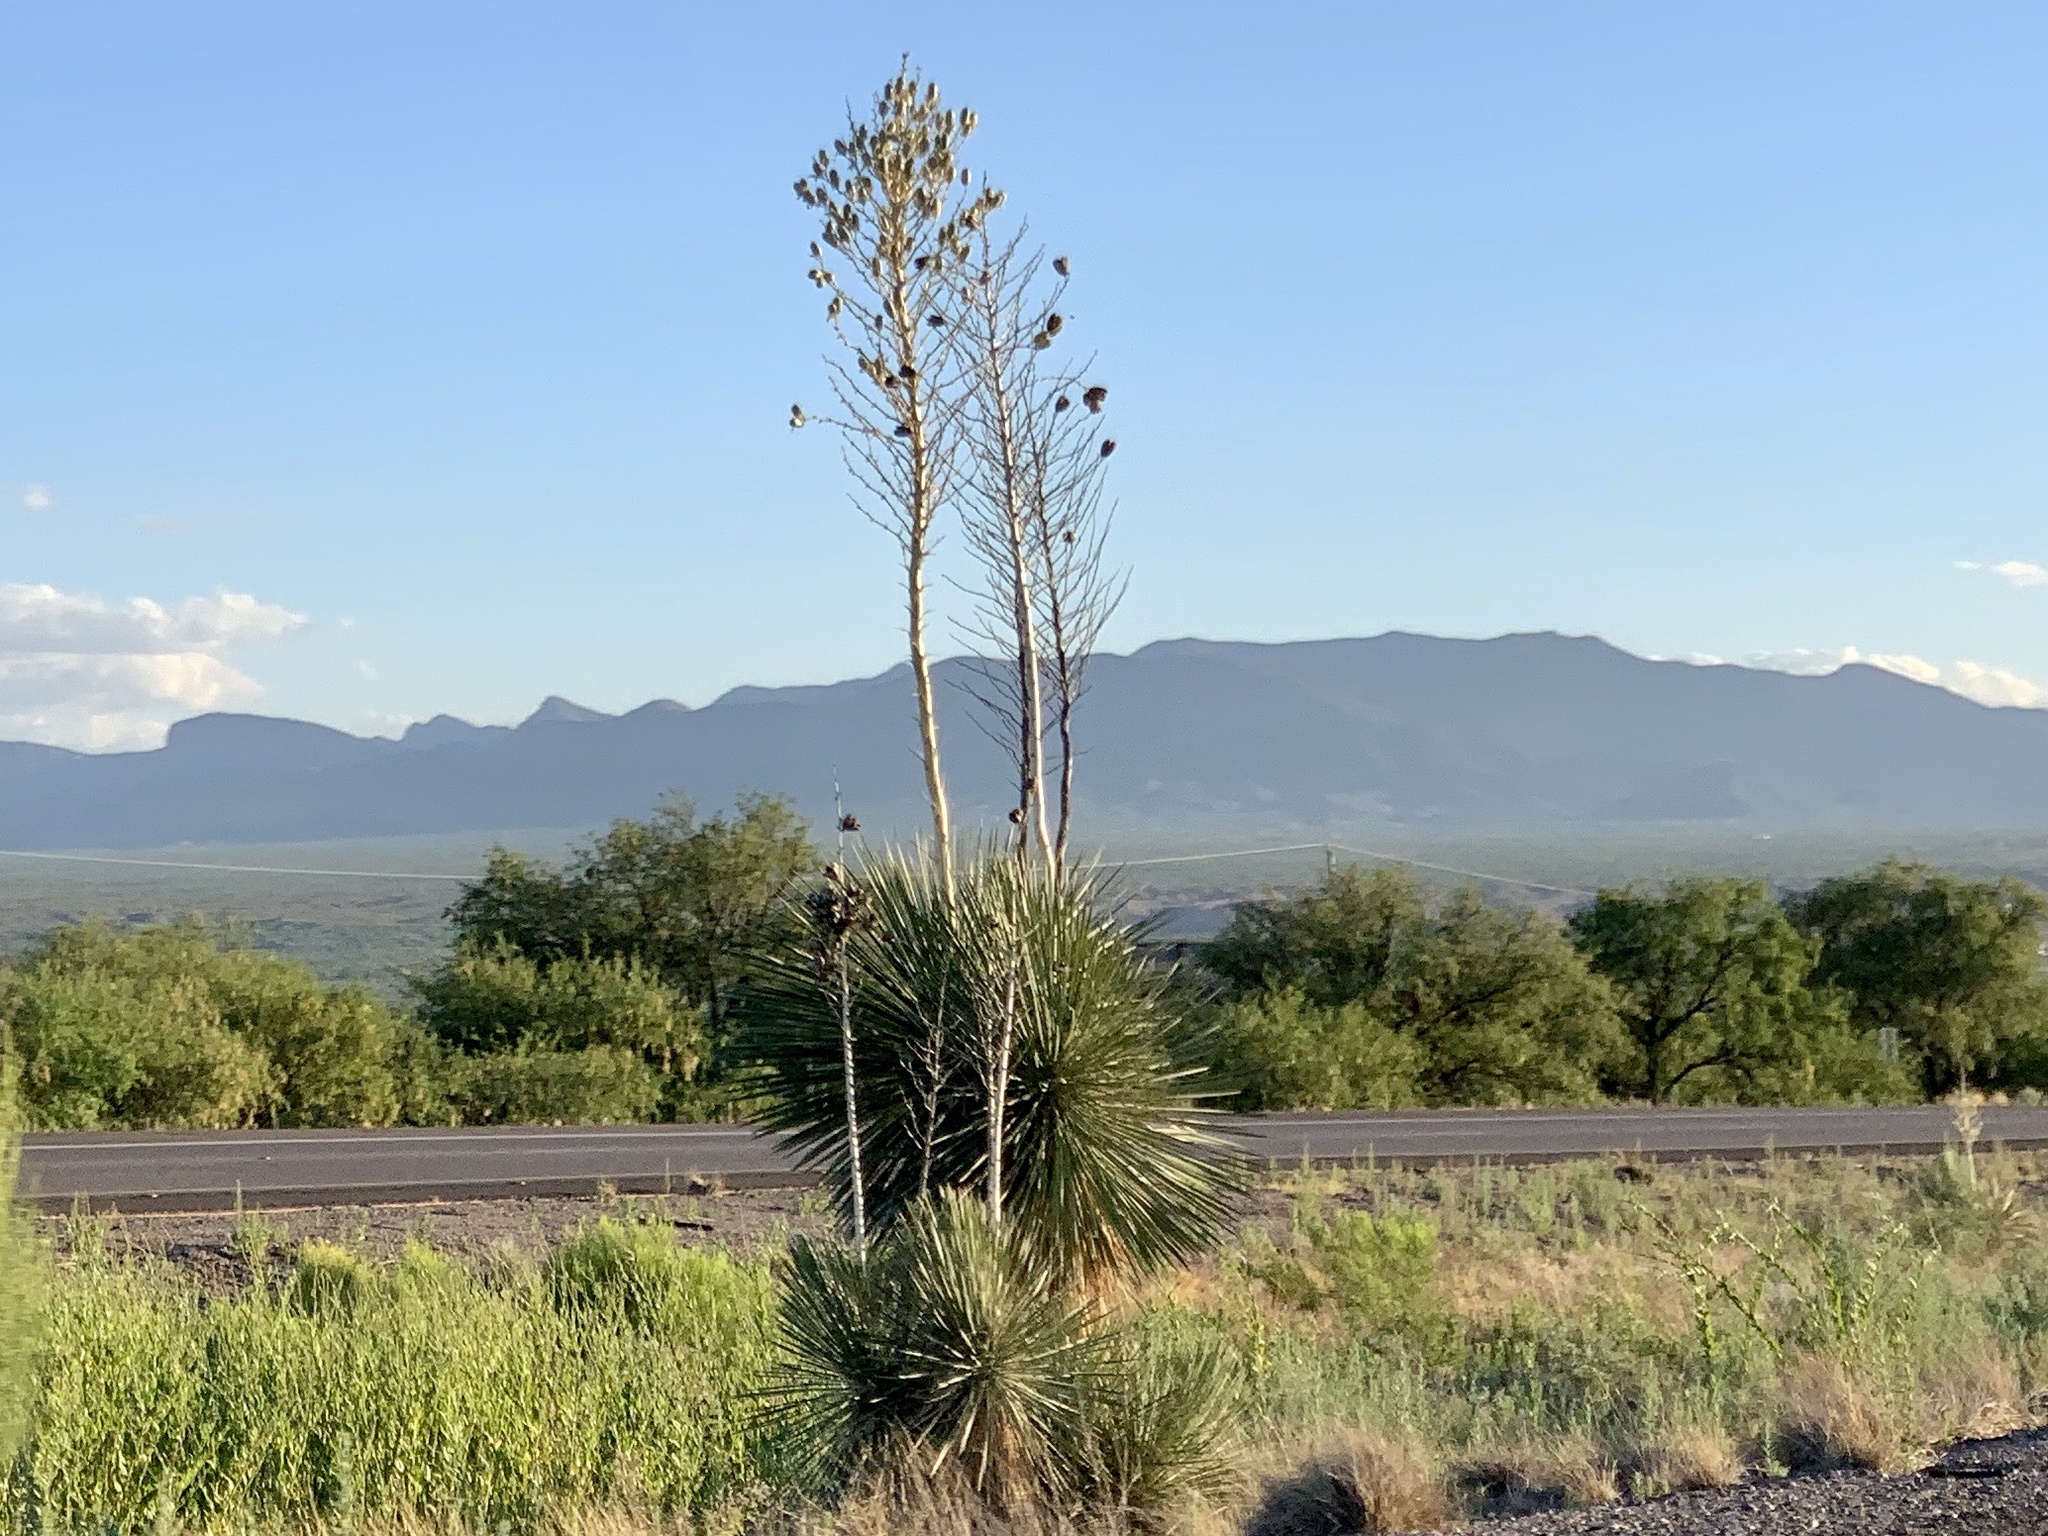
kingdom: Plantae
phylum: Tracheophyta
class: Liliopsida
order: Asparagales
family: Asparagaceae
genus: Yucca
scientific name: Yucca elata
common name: Palmella
